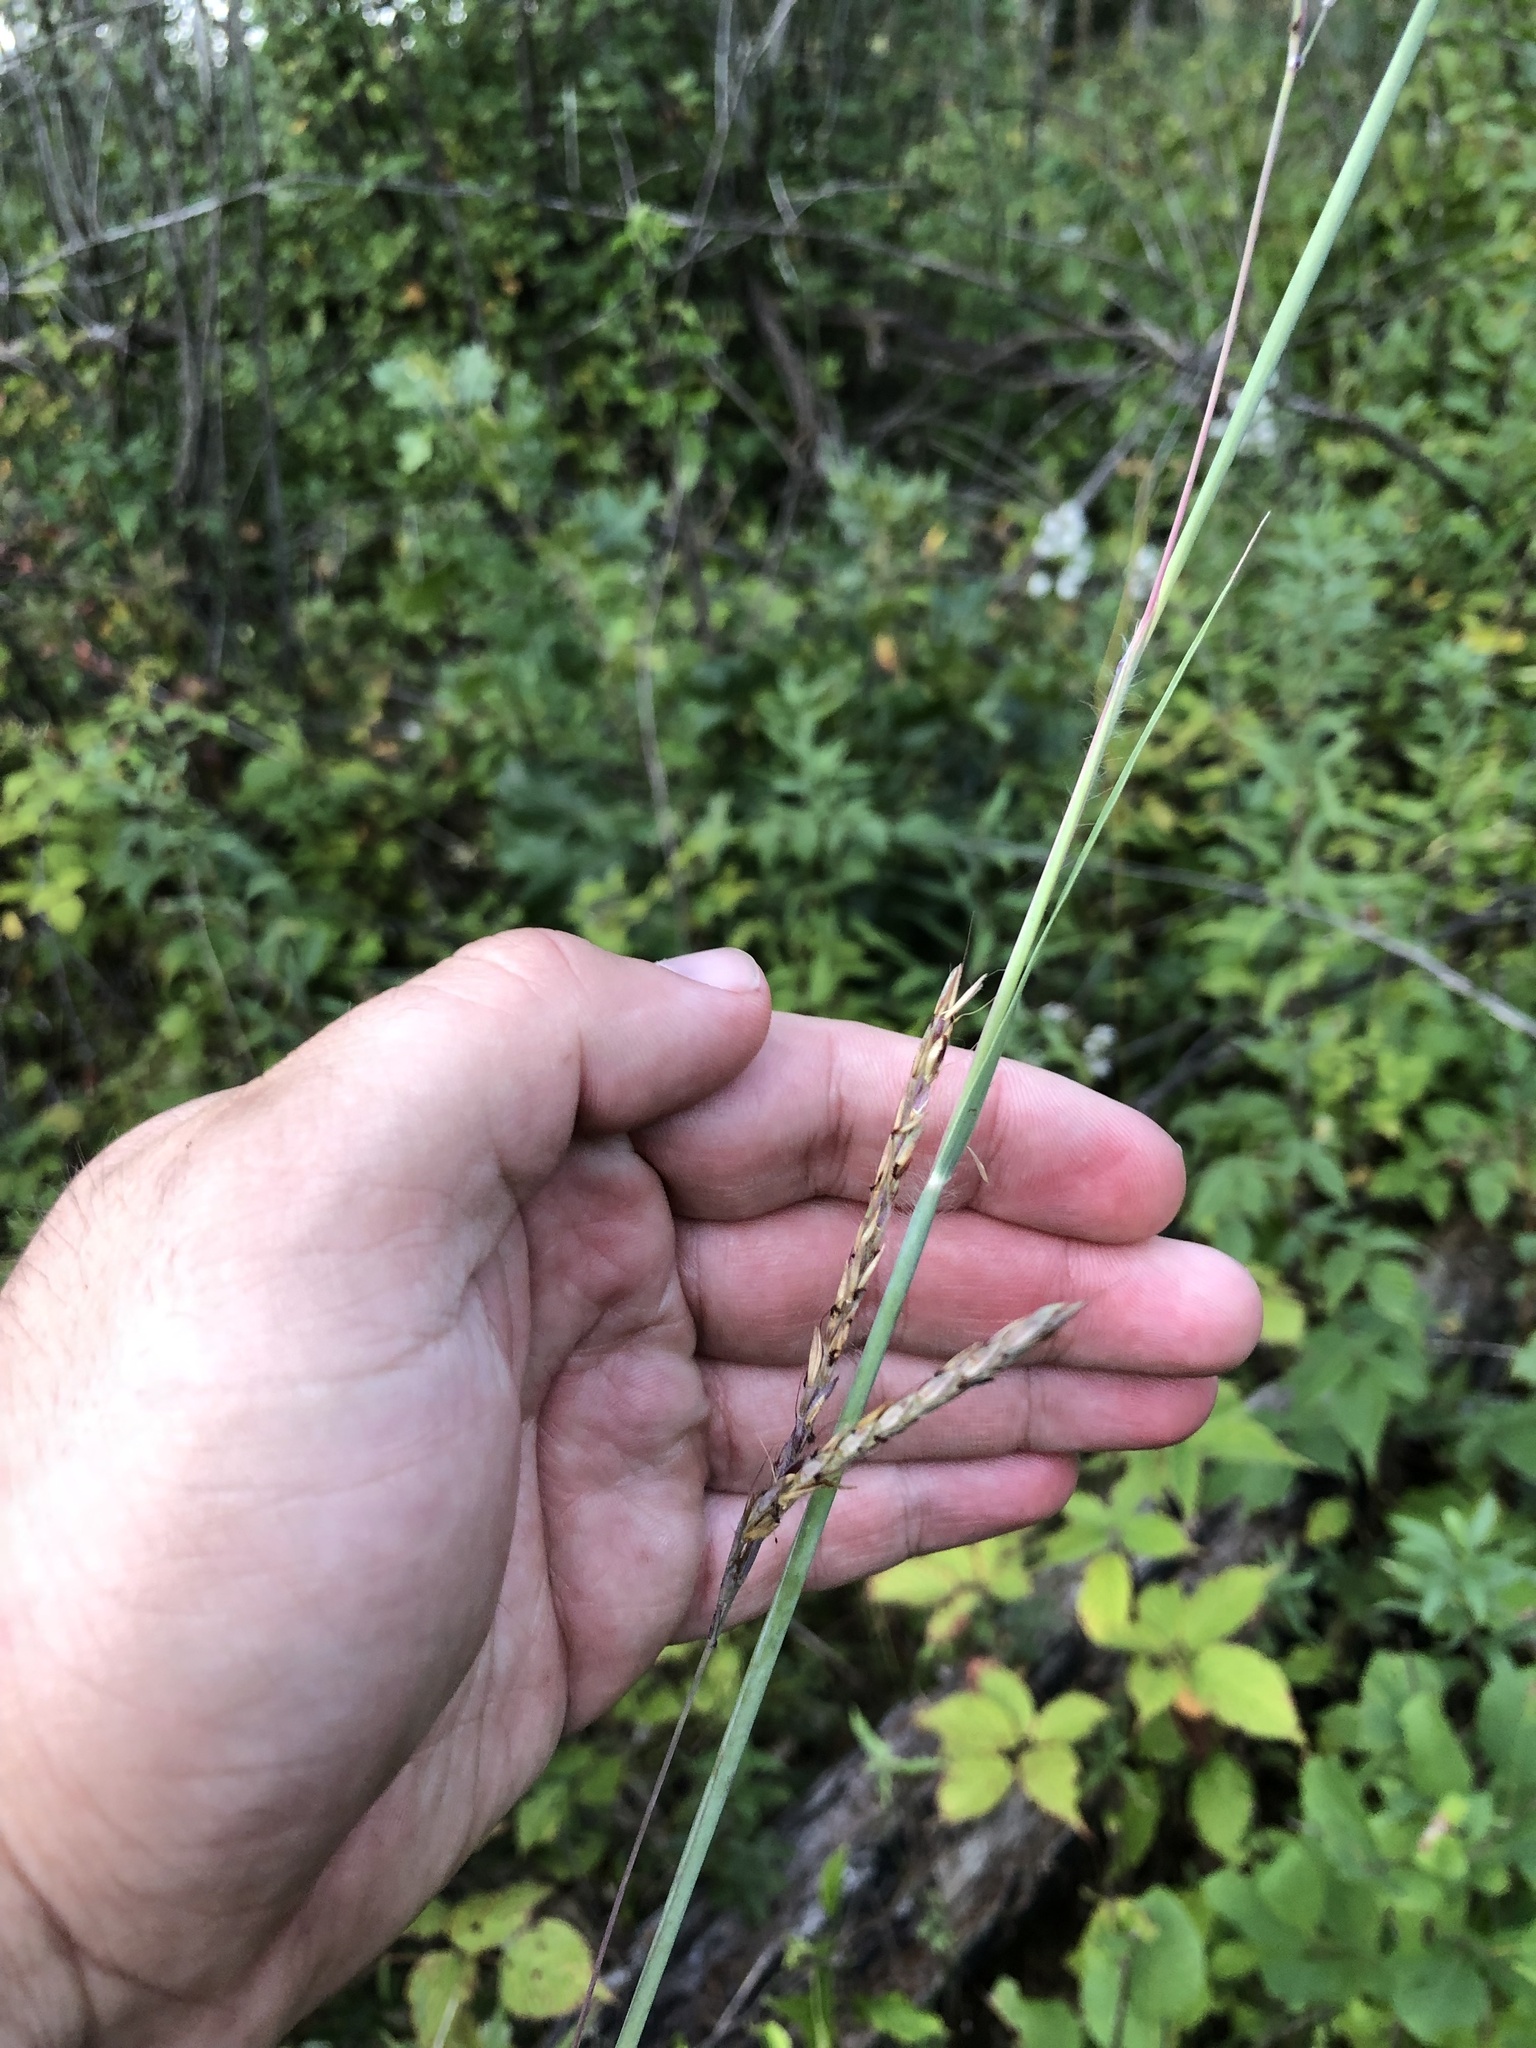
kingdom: Plantae
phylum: Tracheophyta
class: Liliopsida
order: Poales
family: Poaceae
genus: Andropogon
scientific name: Andropogon gerardi
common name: Big bluestem
